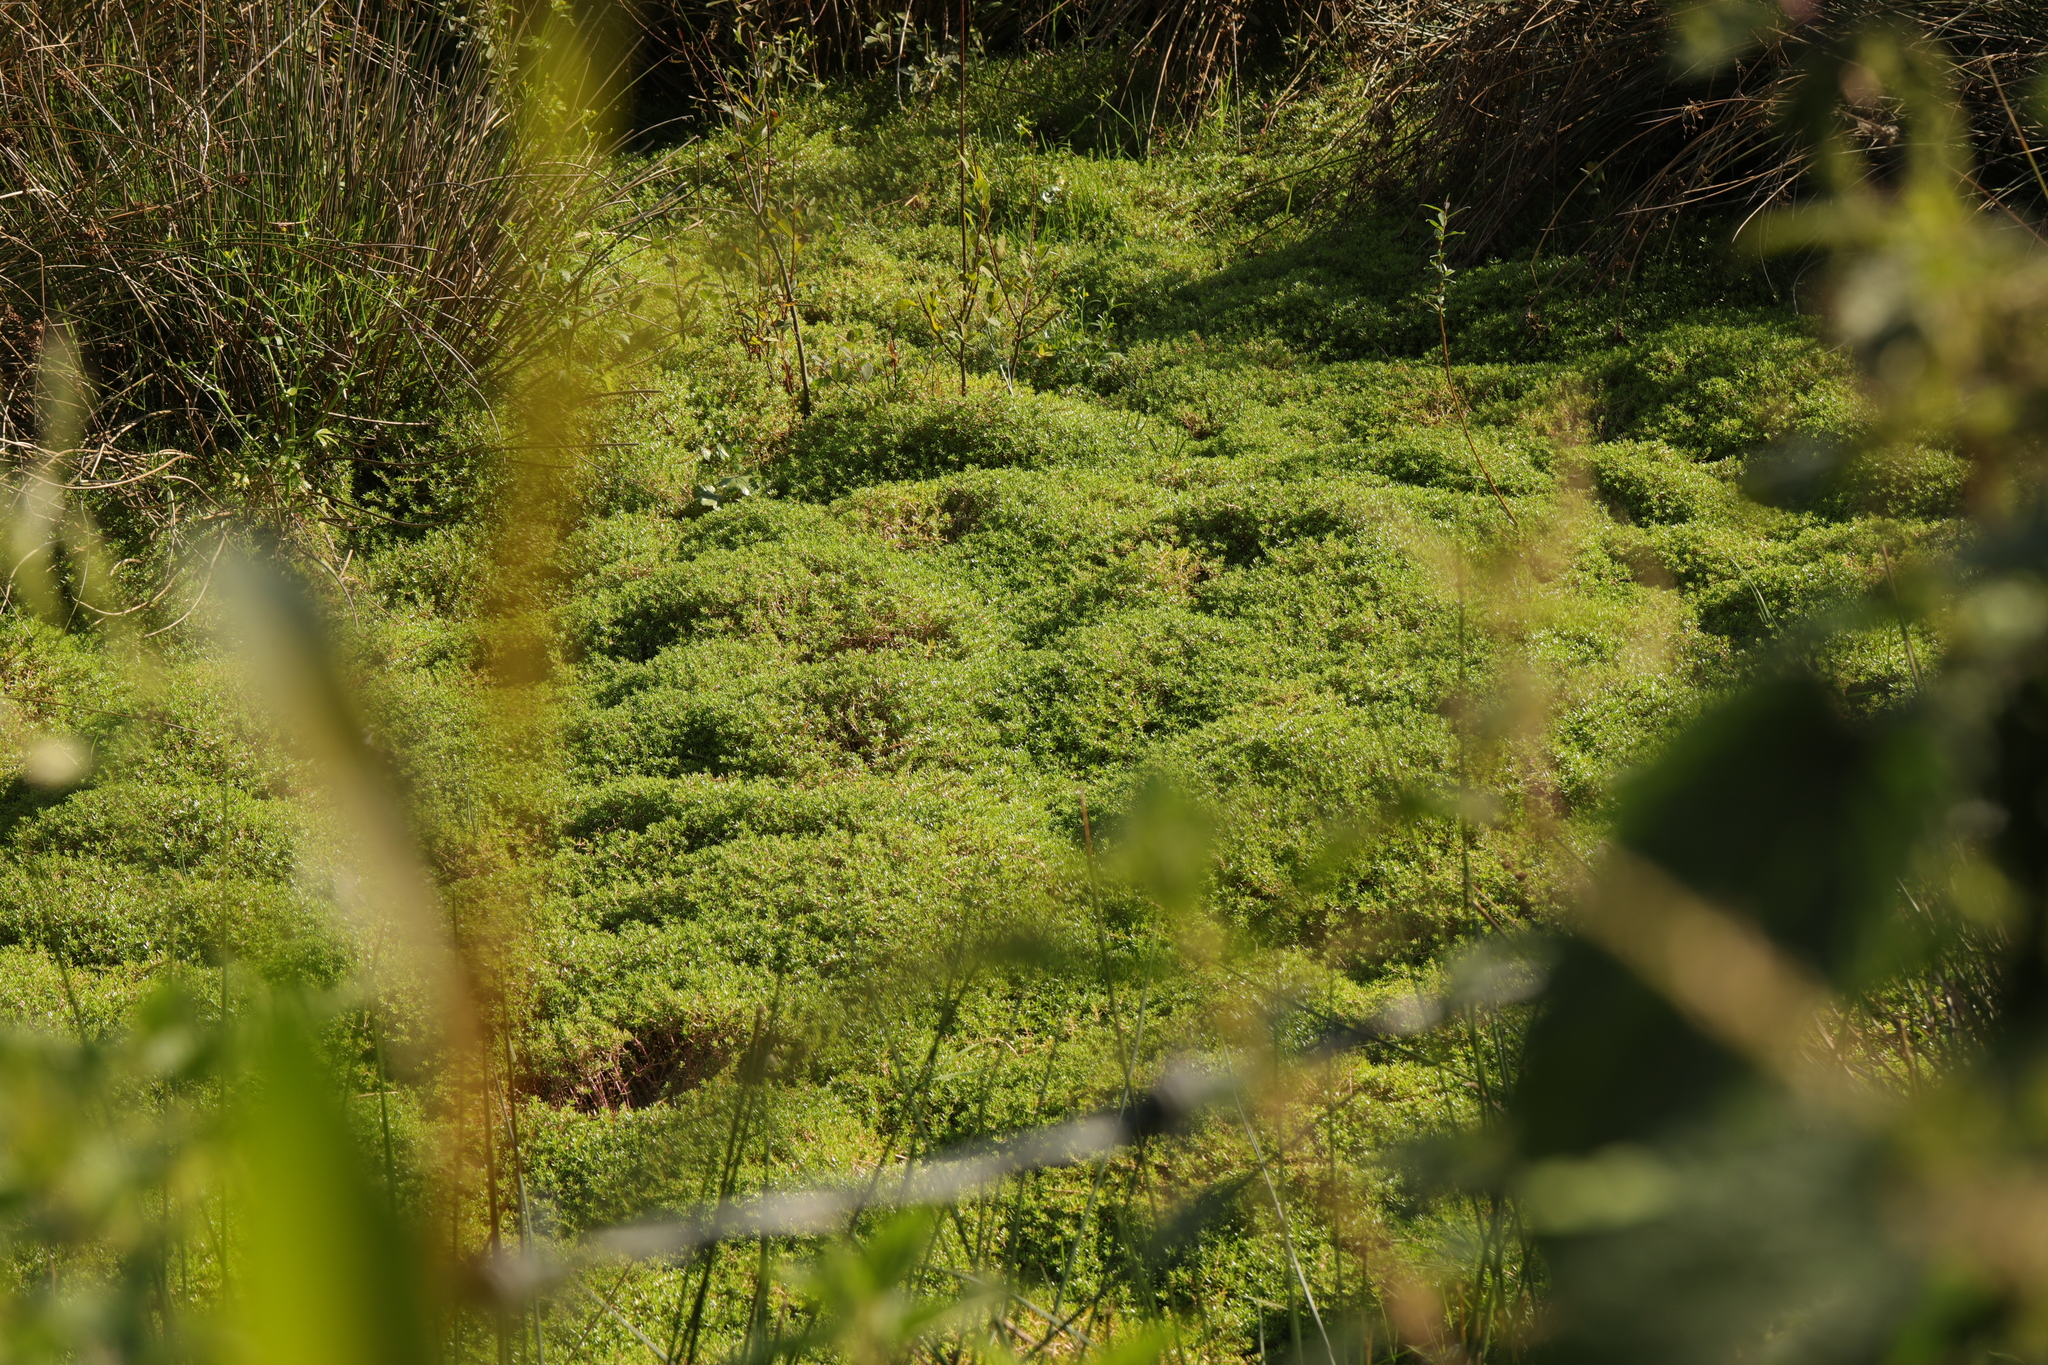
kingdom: Plantae
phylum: Tracheophyta
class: Magnoliopsida
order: Saxifragales
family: Crassulaceae
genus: Crassula
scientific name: Crassula helmsii
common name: New zealand pigmyweed
